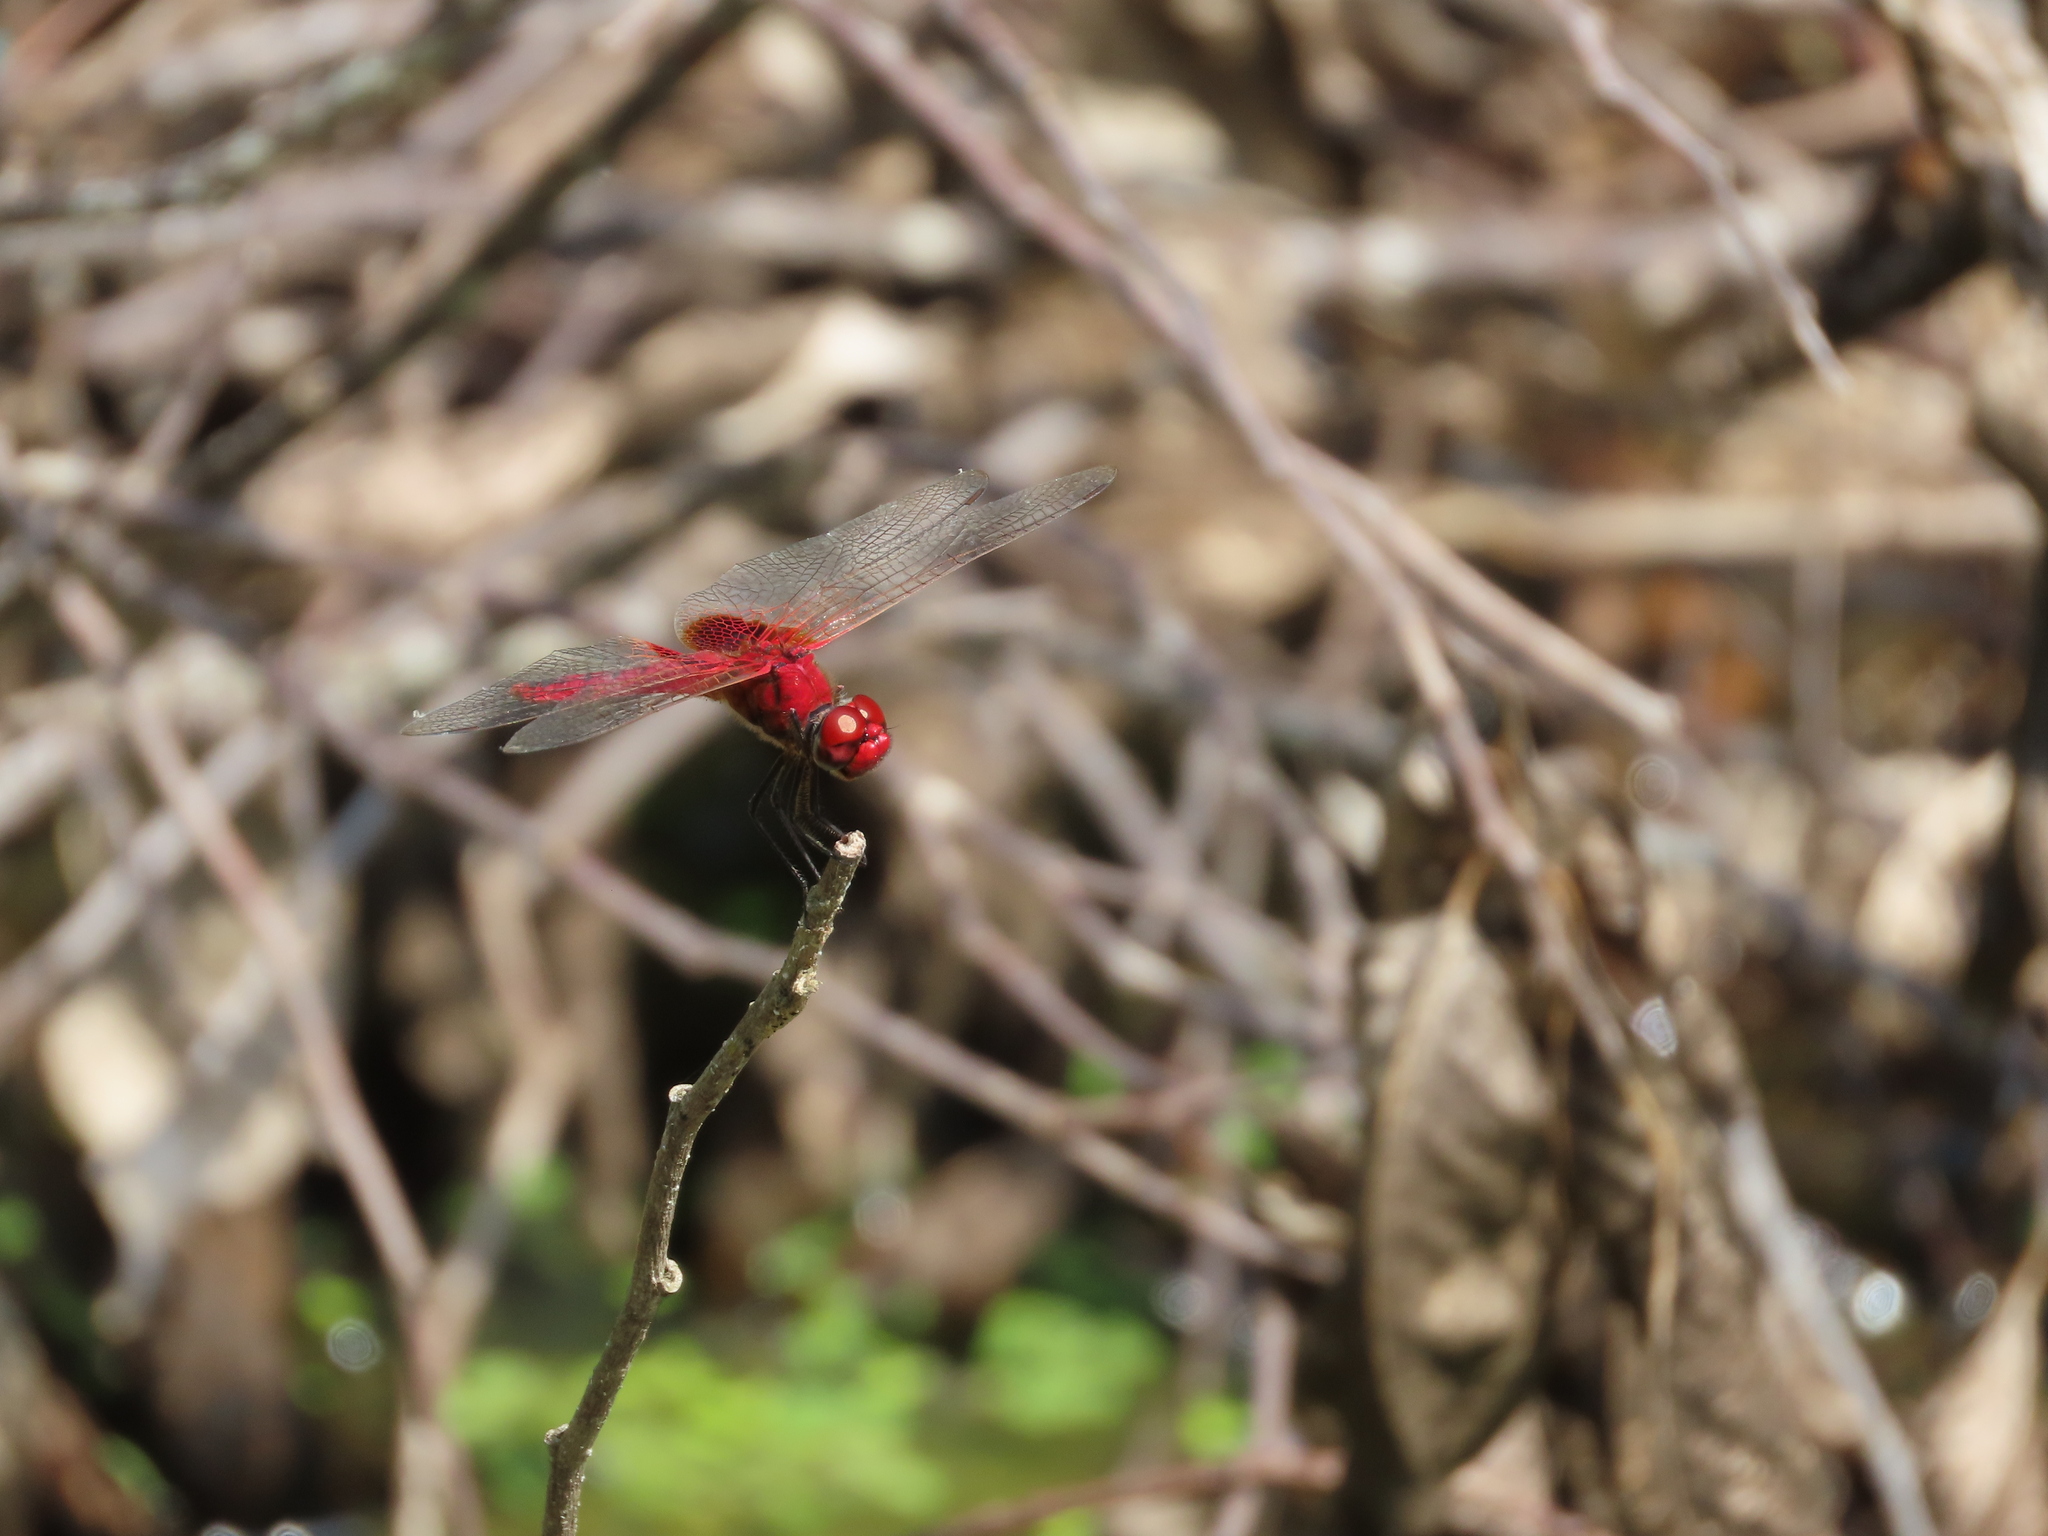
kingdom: Animalia
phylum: Arthropoda
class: Insecta
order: Odonata
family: Libellulidae
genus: Urothemis
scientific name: Urothemis signata
